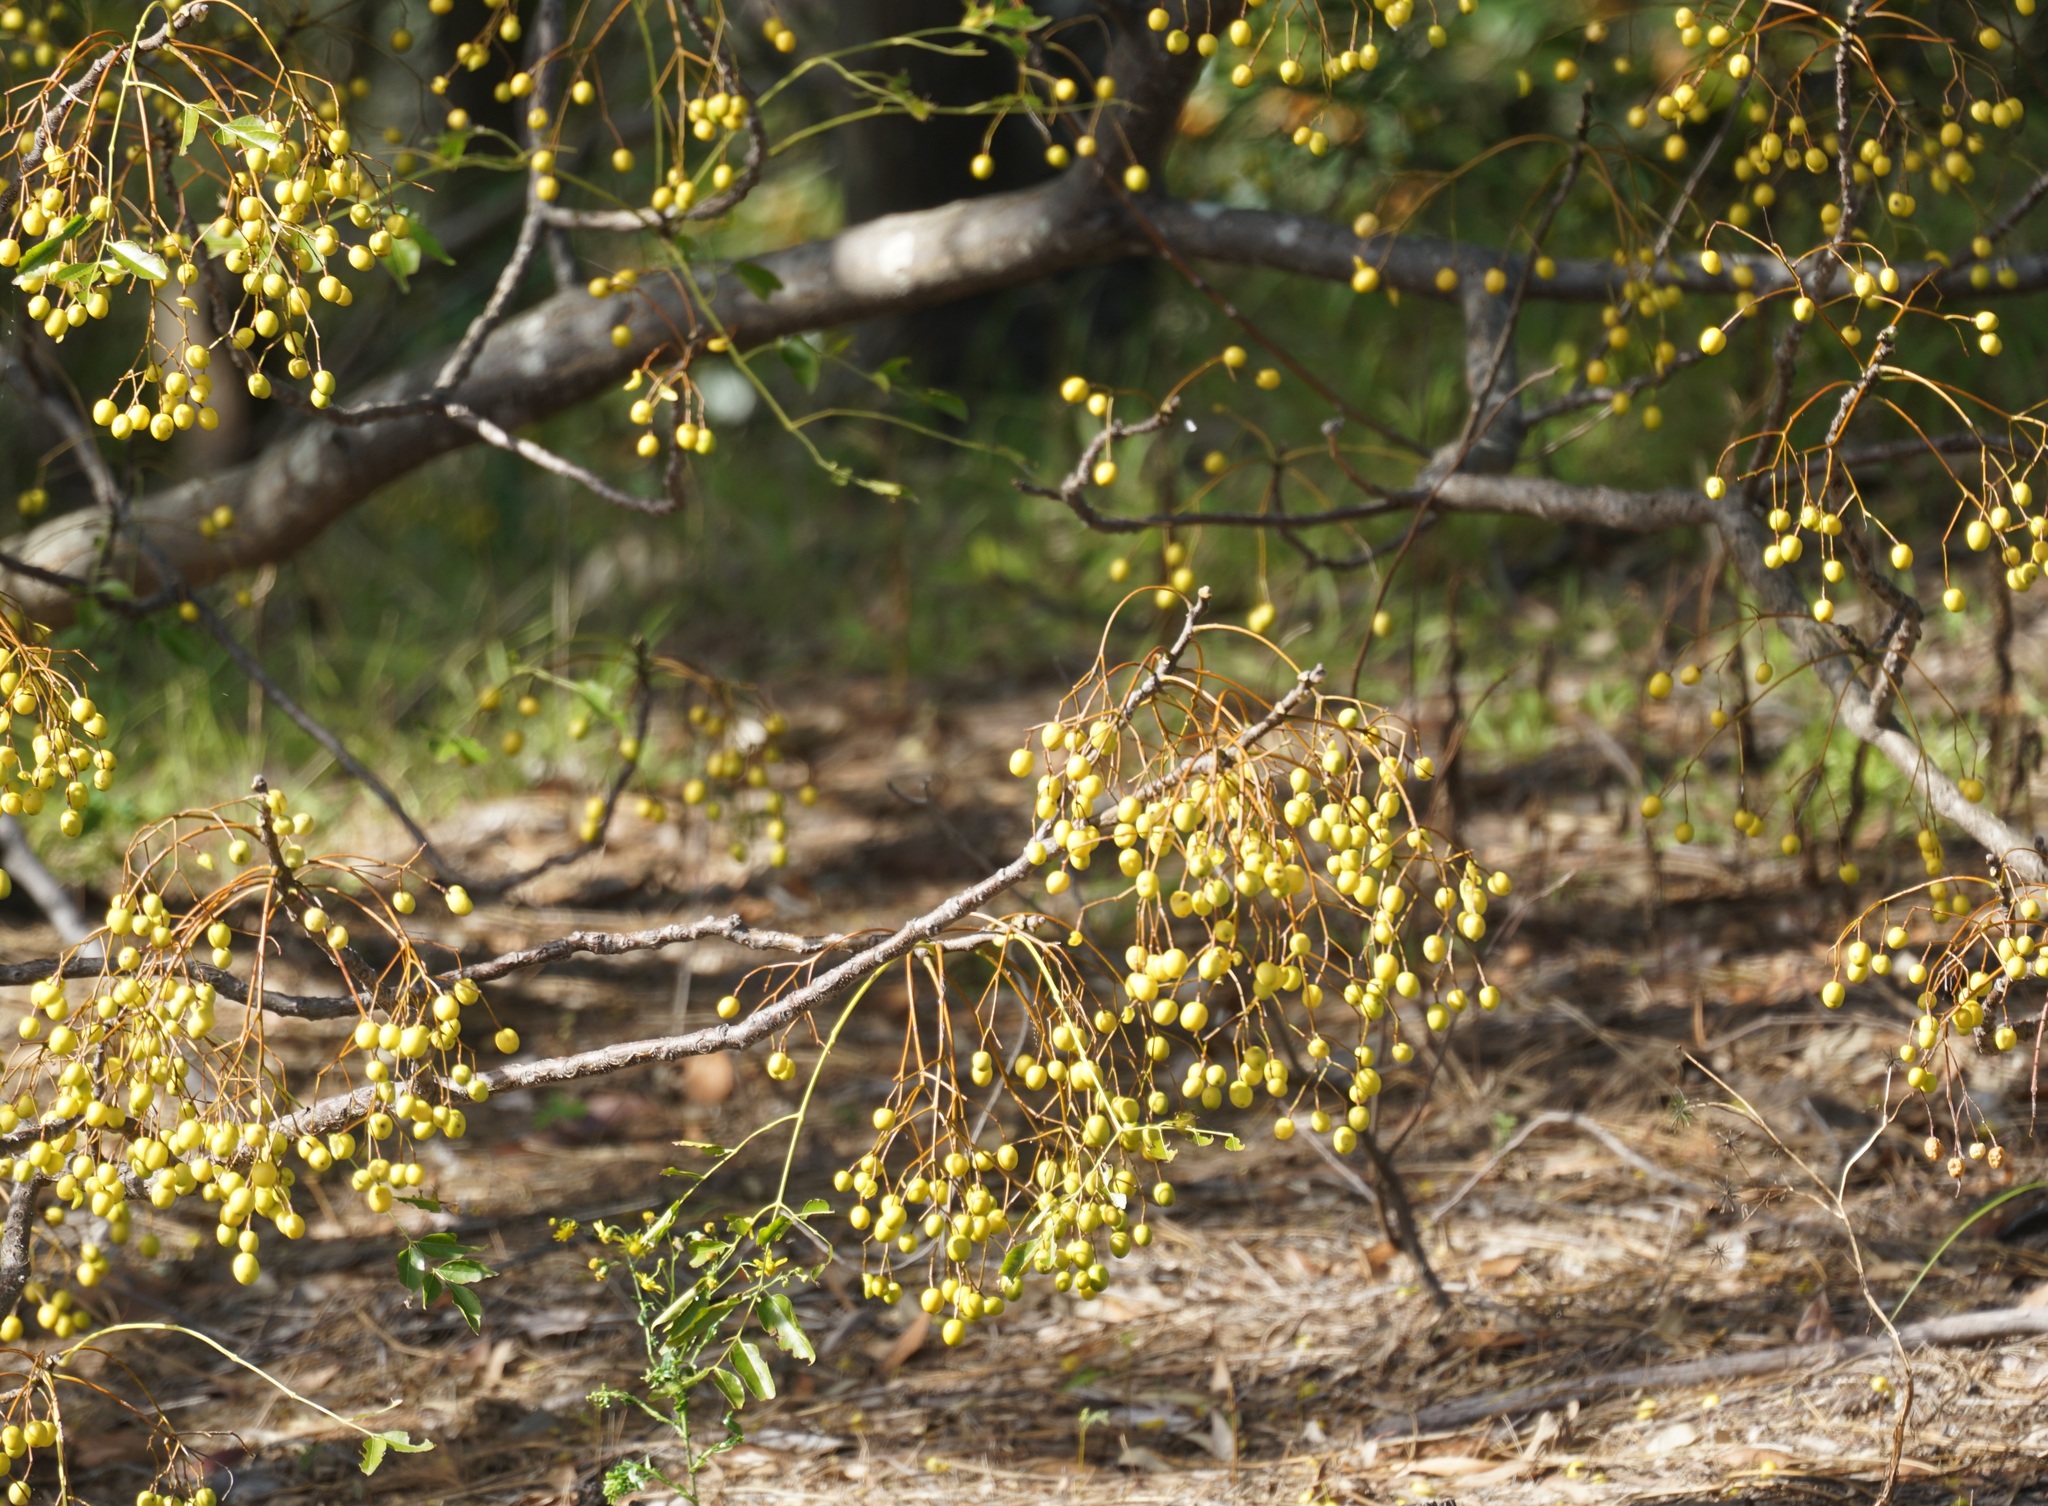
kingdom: Plantae
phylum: Tracheophyta
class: Magnoliopsida
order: Sapindales
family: Meliaceae
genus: Melia
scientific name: Melia azedarach
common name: Chinaberrytree
